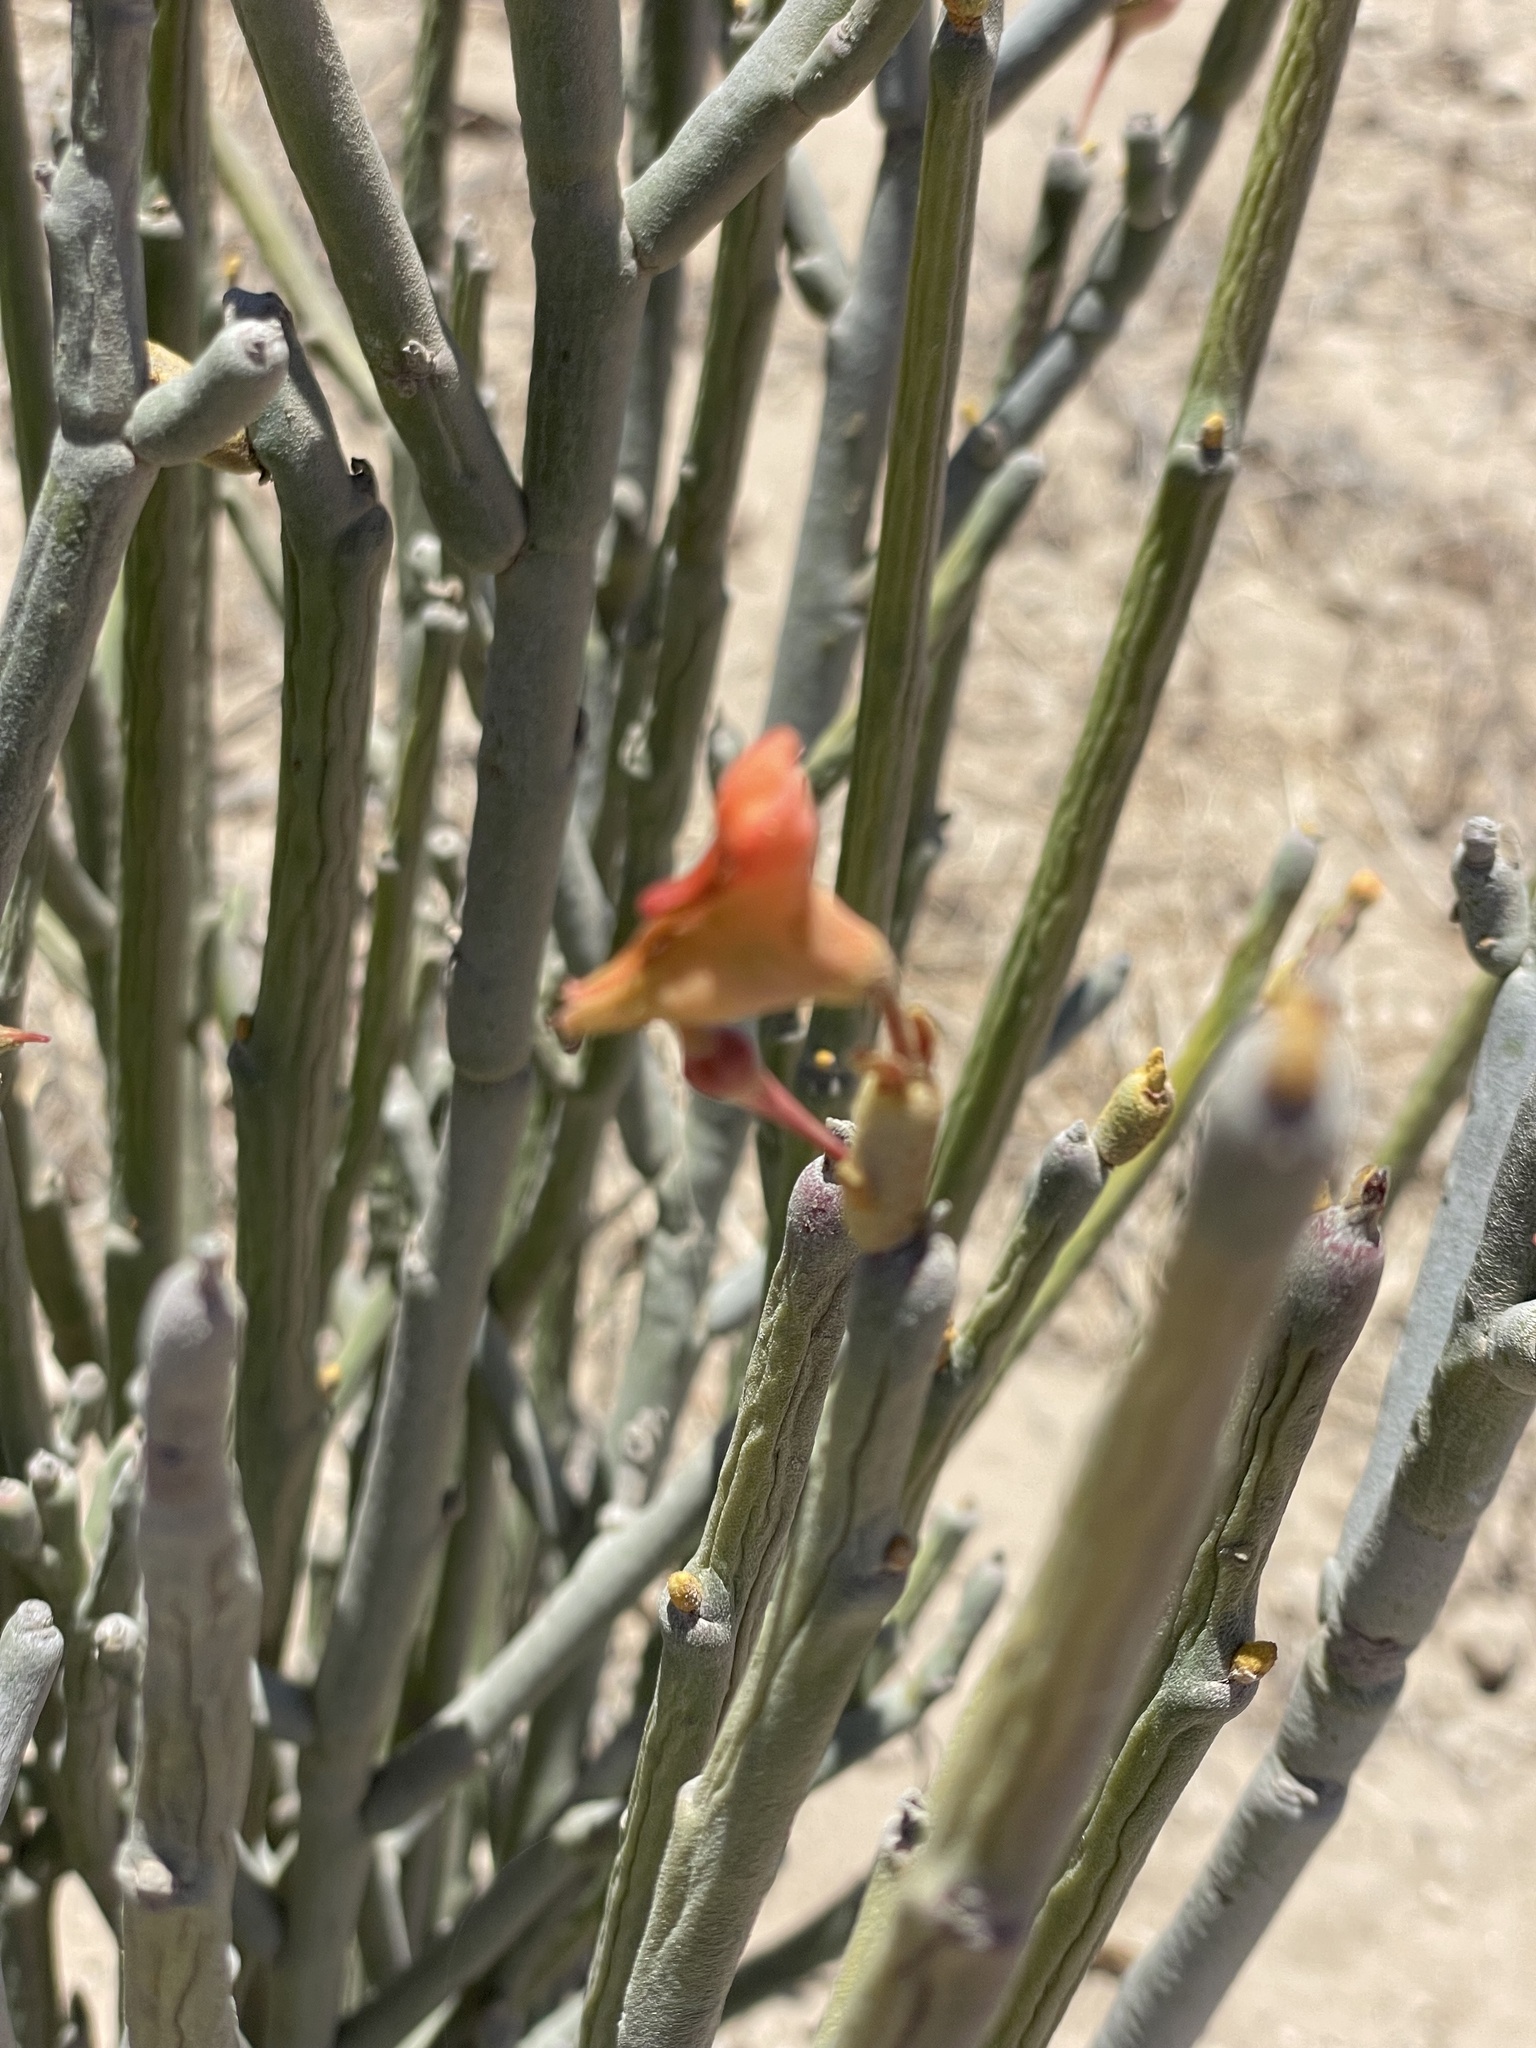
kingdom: Plantae
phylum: Tracheophyta
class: Magnoliopsida
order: Malpighiales
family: Euphorbiaceae
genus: Euphorbia
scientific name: Euphorbia lomelii
